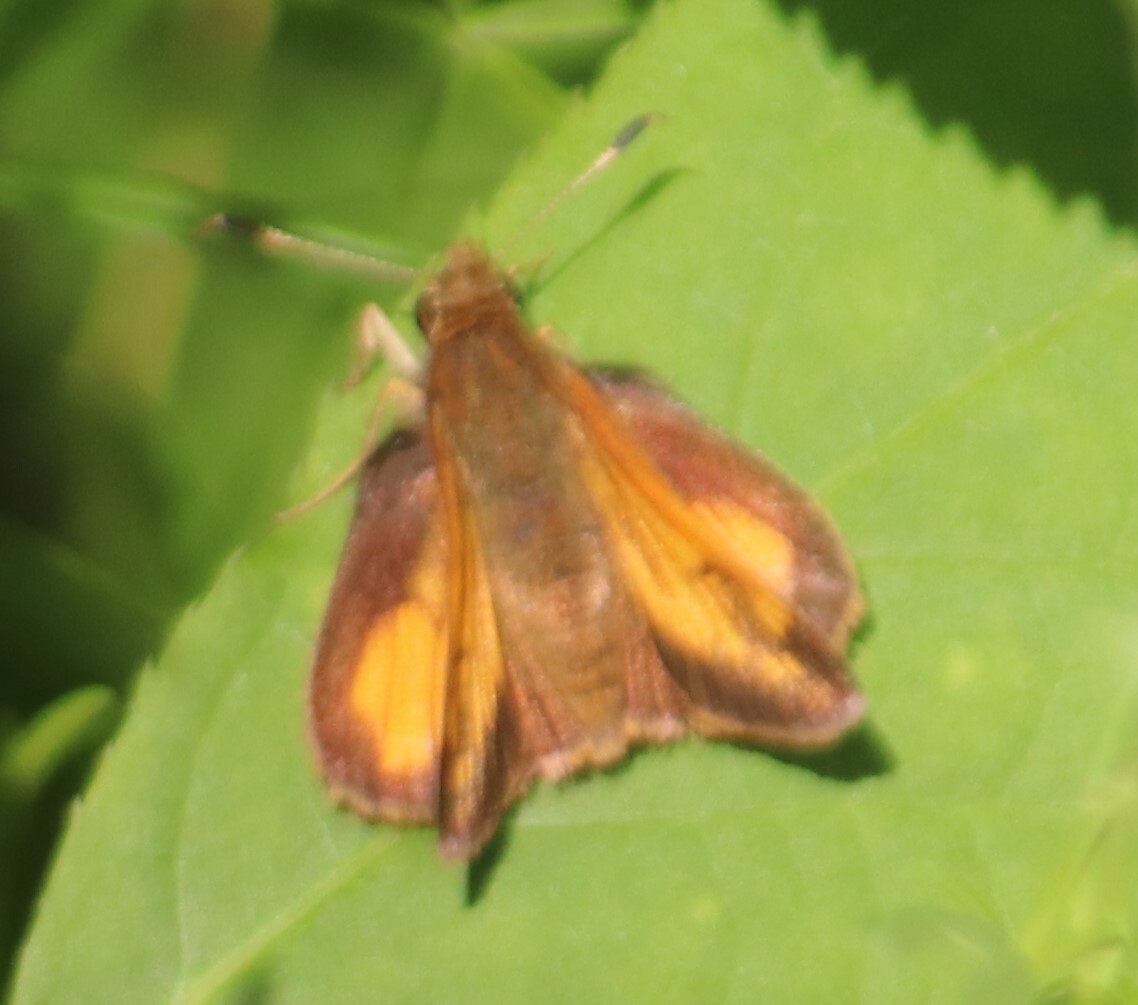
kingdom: Animalia
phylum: Arthropoda
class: Insecta
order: Lepidoptera
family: Hesperiidae
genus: Lon
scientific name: Lon hobomok
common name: Hobomok skipper
